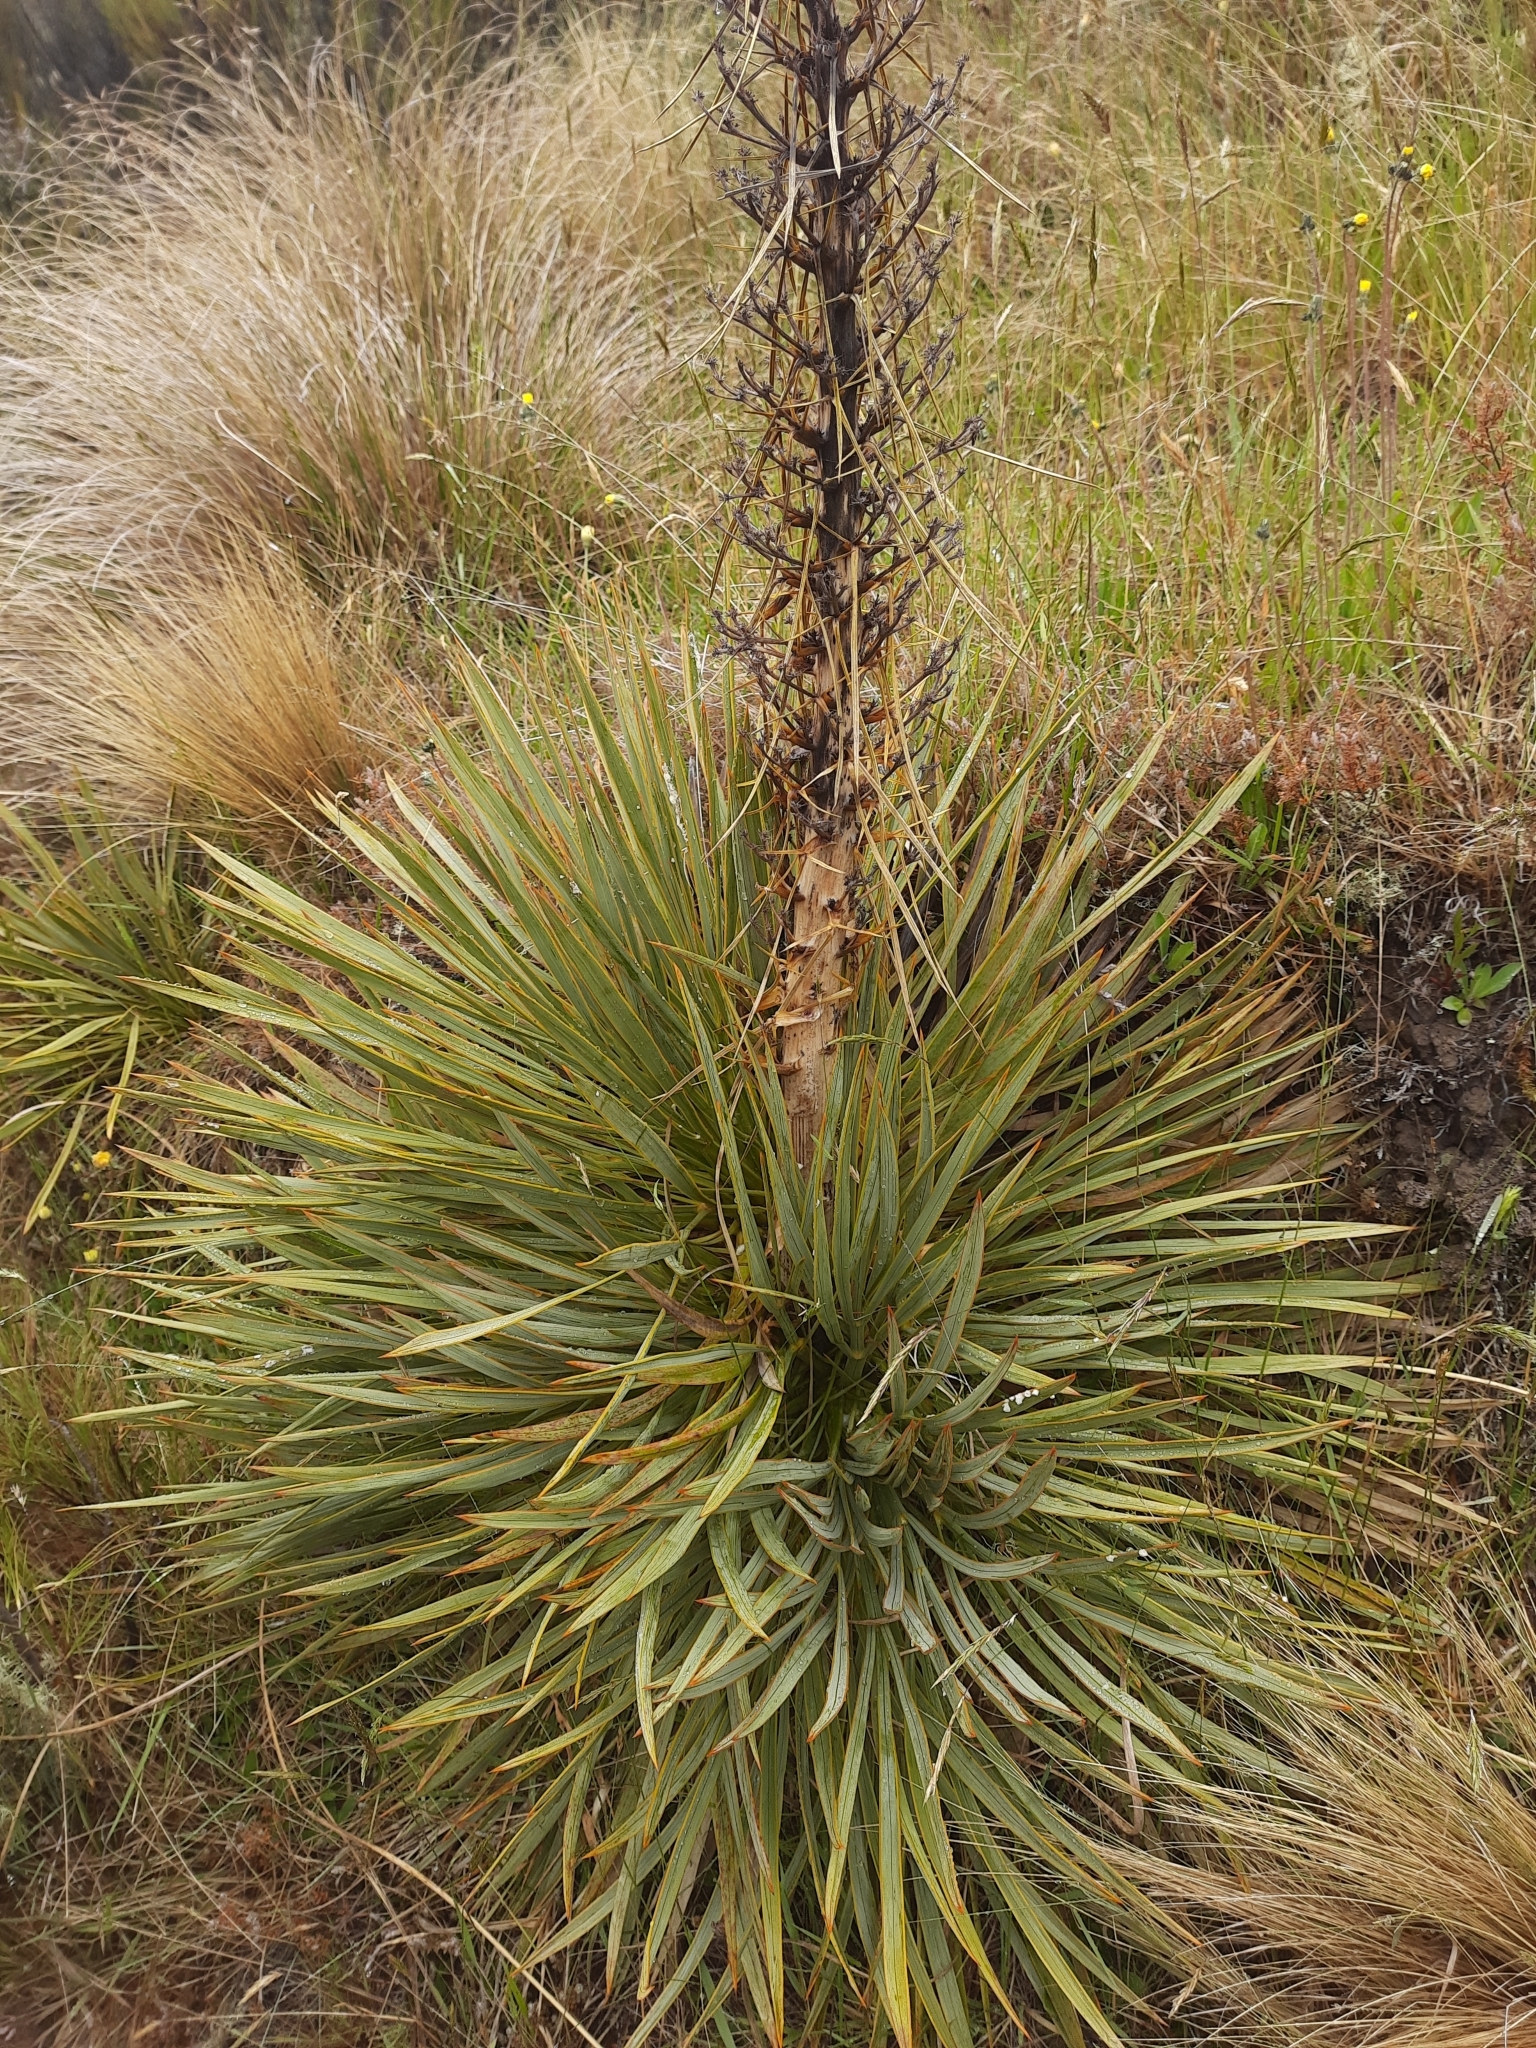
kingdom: Plantae
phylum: Tracheophyta
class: Magnoliopsida
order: Apiales
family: Apiaceae
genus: Aciphylla
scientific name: Aciphylla aurea
